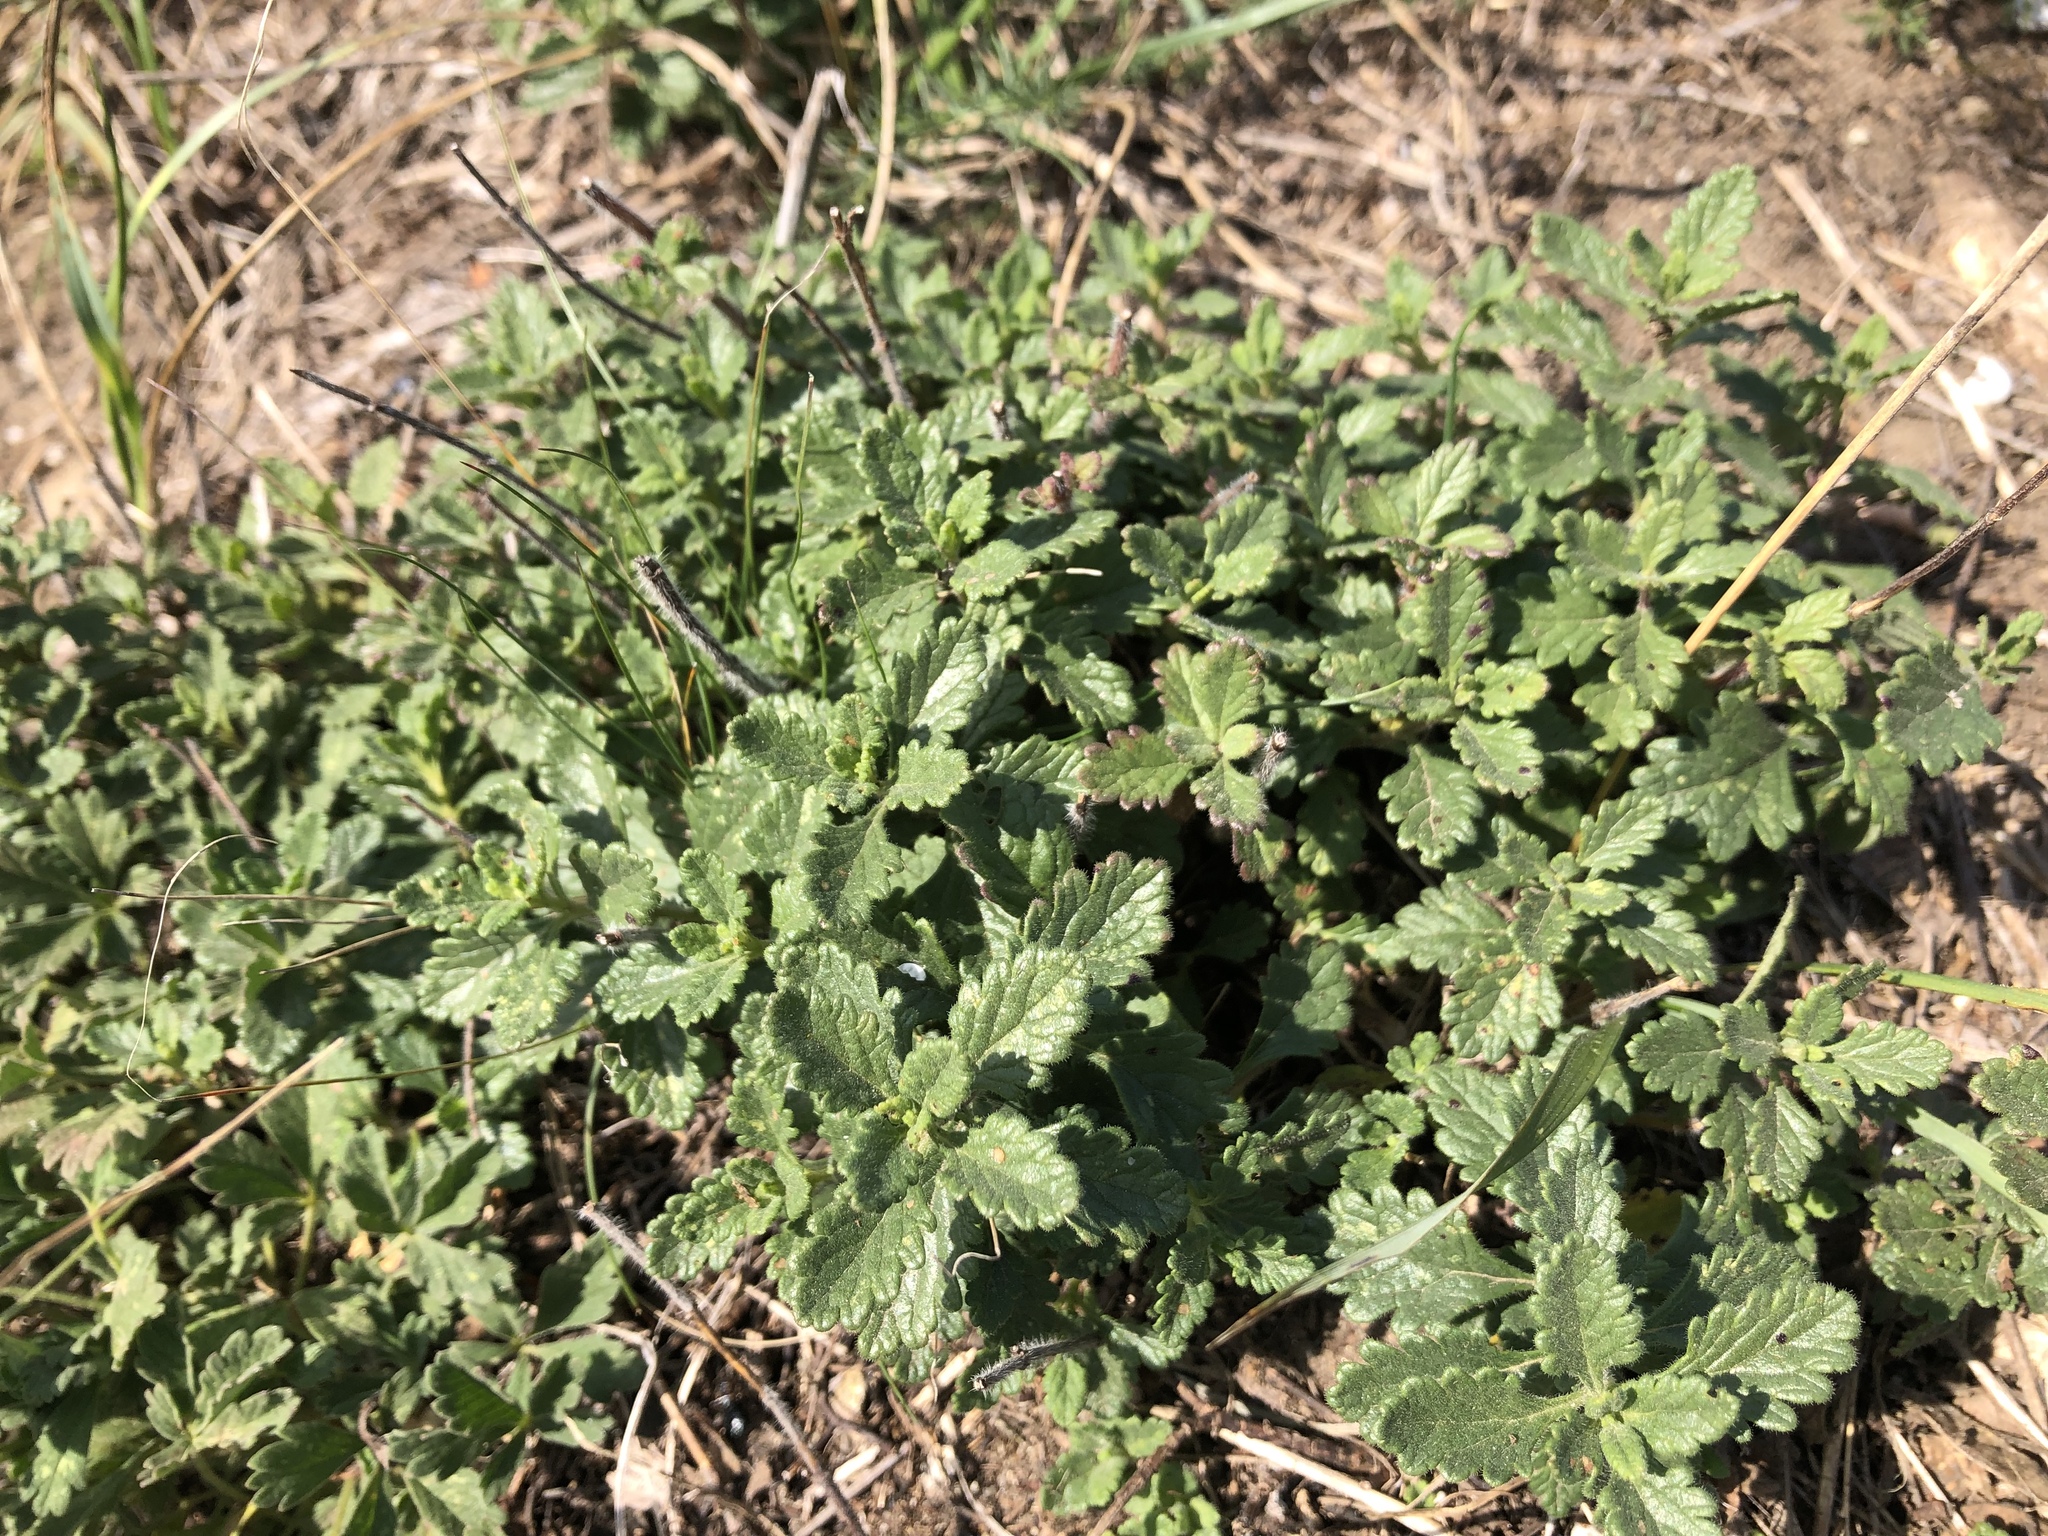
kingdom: Plantae
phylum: Tracheophyta
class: Magnoliopsida
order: Lamiales
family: Lamiaceae
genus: Teucrium
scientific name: Teucrium chamaedrys
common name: Wall germander
